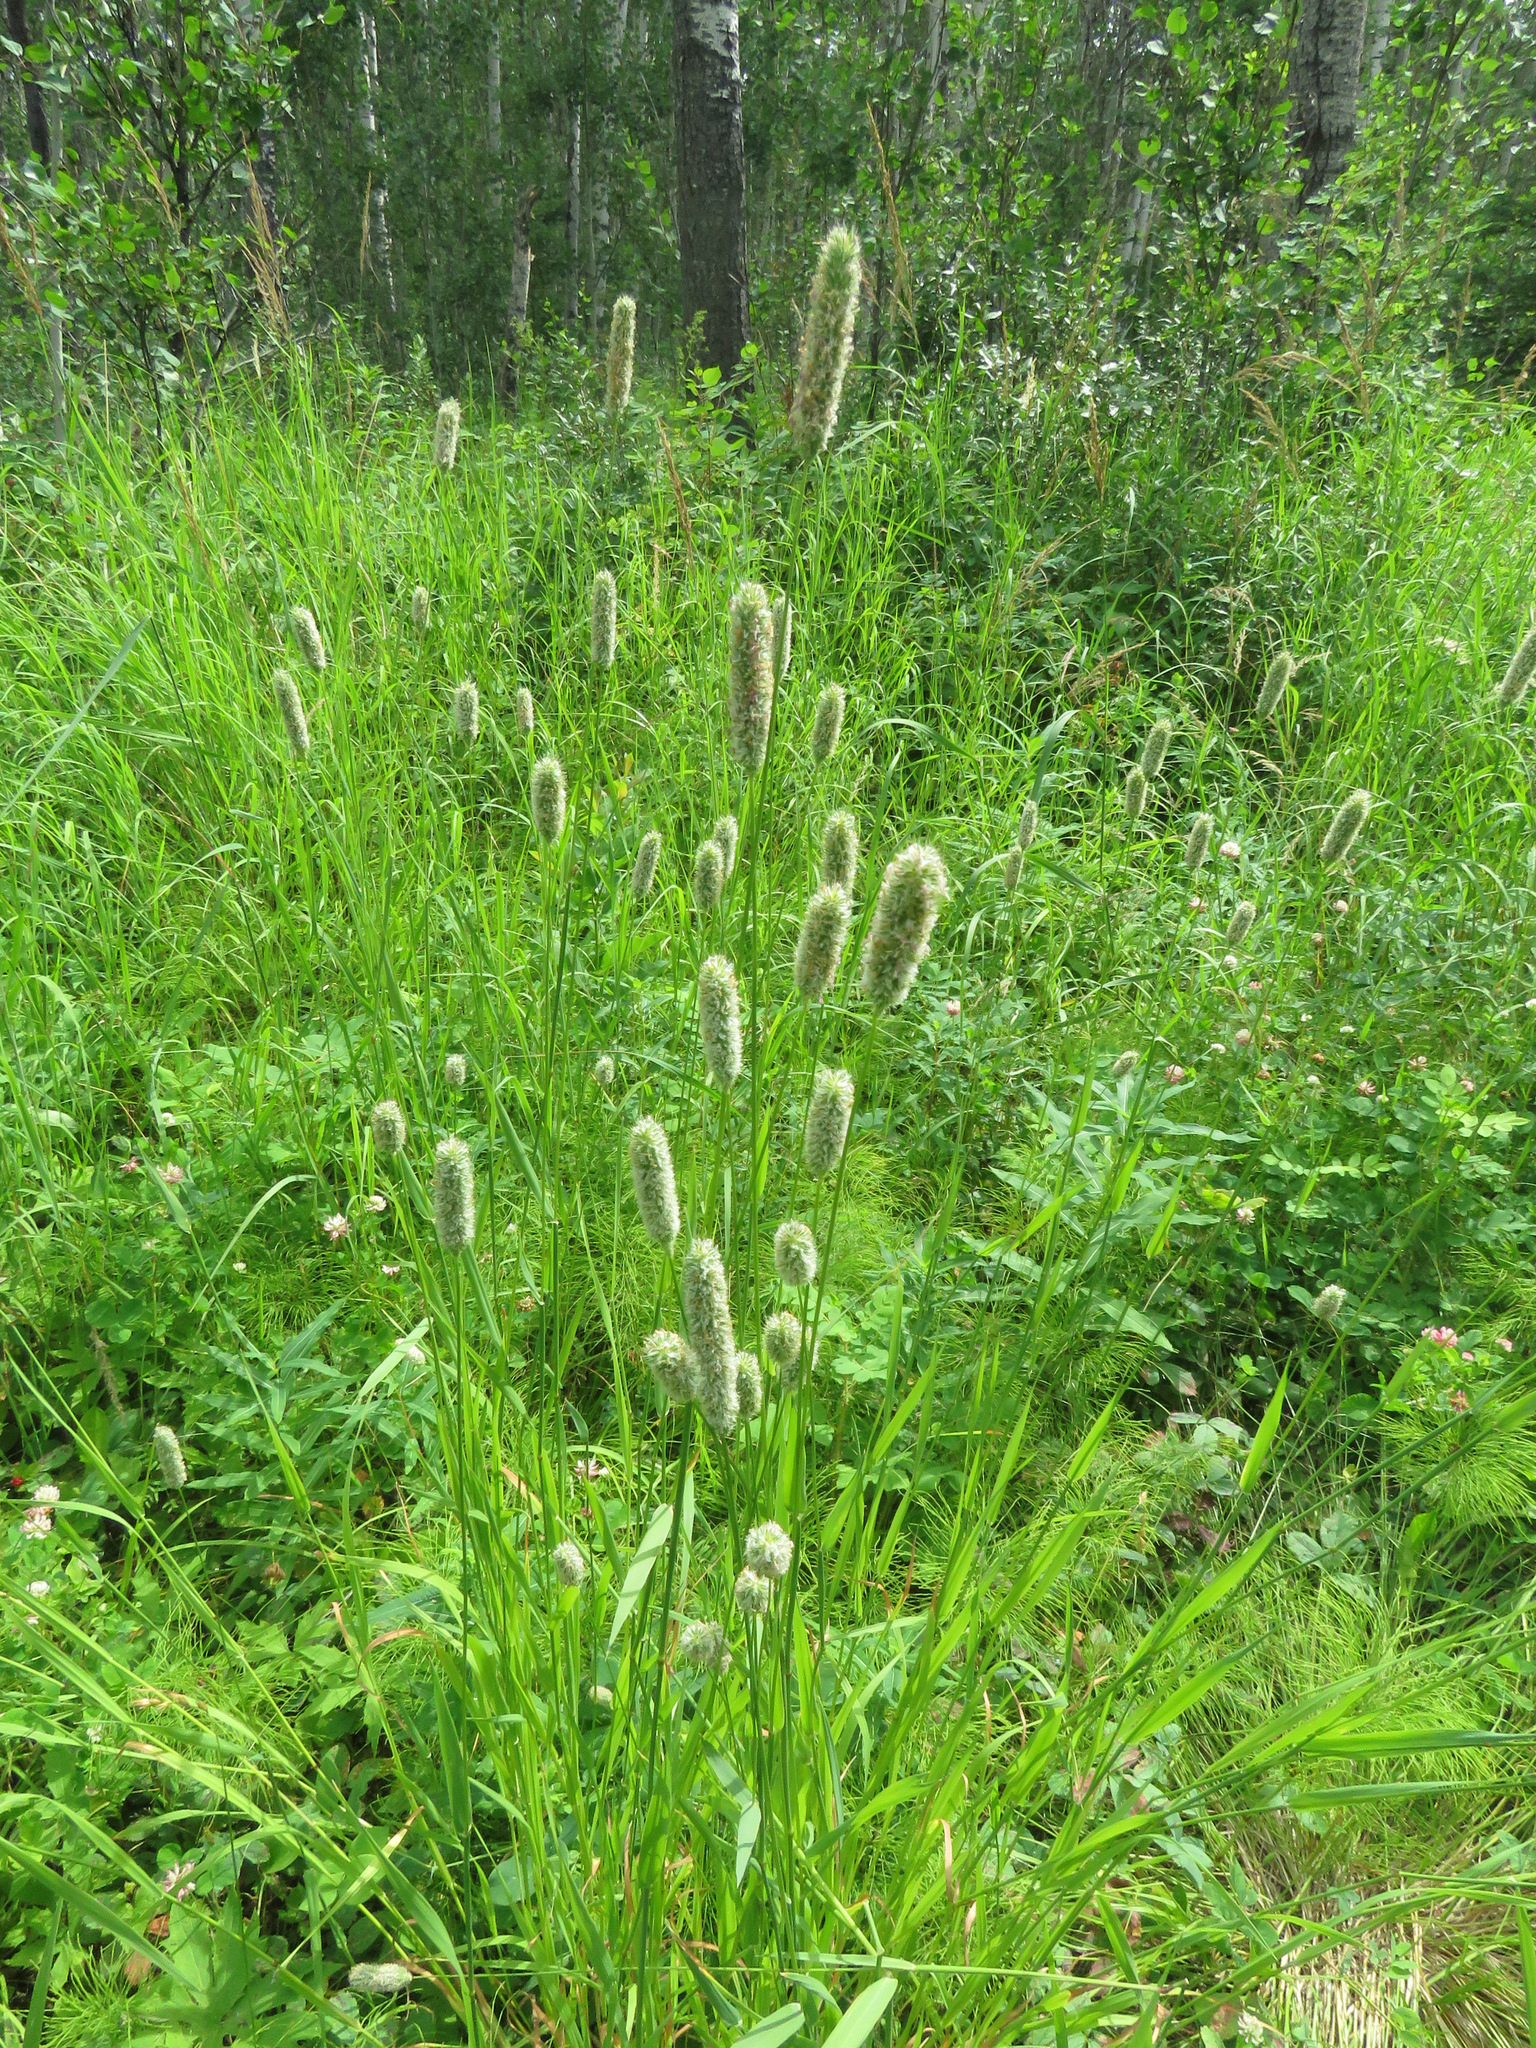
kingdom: Plantae
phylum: Tracheophyta
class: Liliopsida
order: Poales
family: Poaceae
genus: Phleum
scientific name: Phleum pratense
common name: Timothy grass
